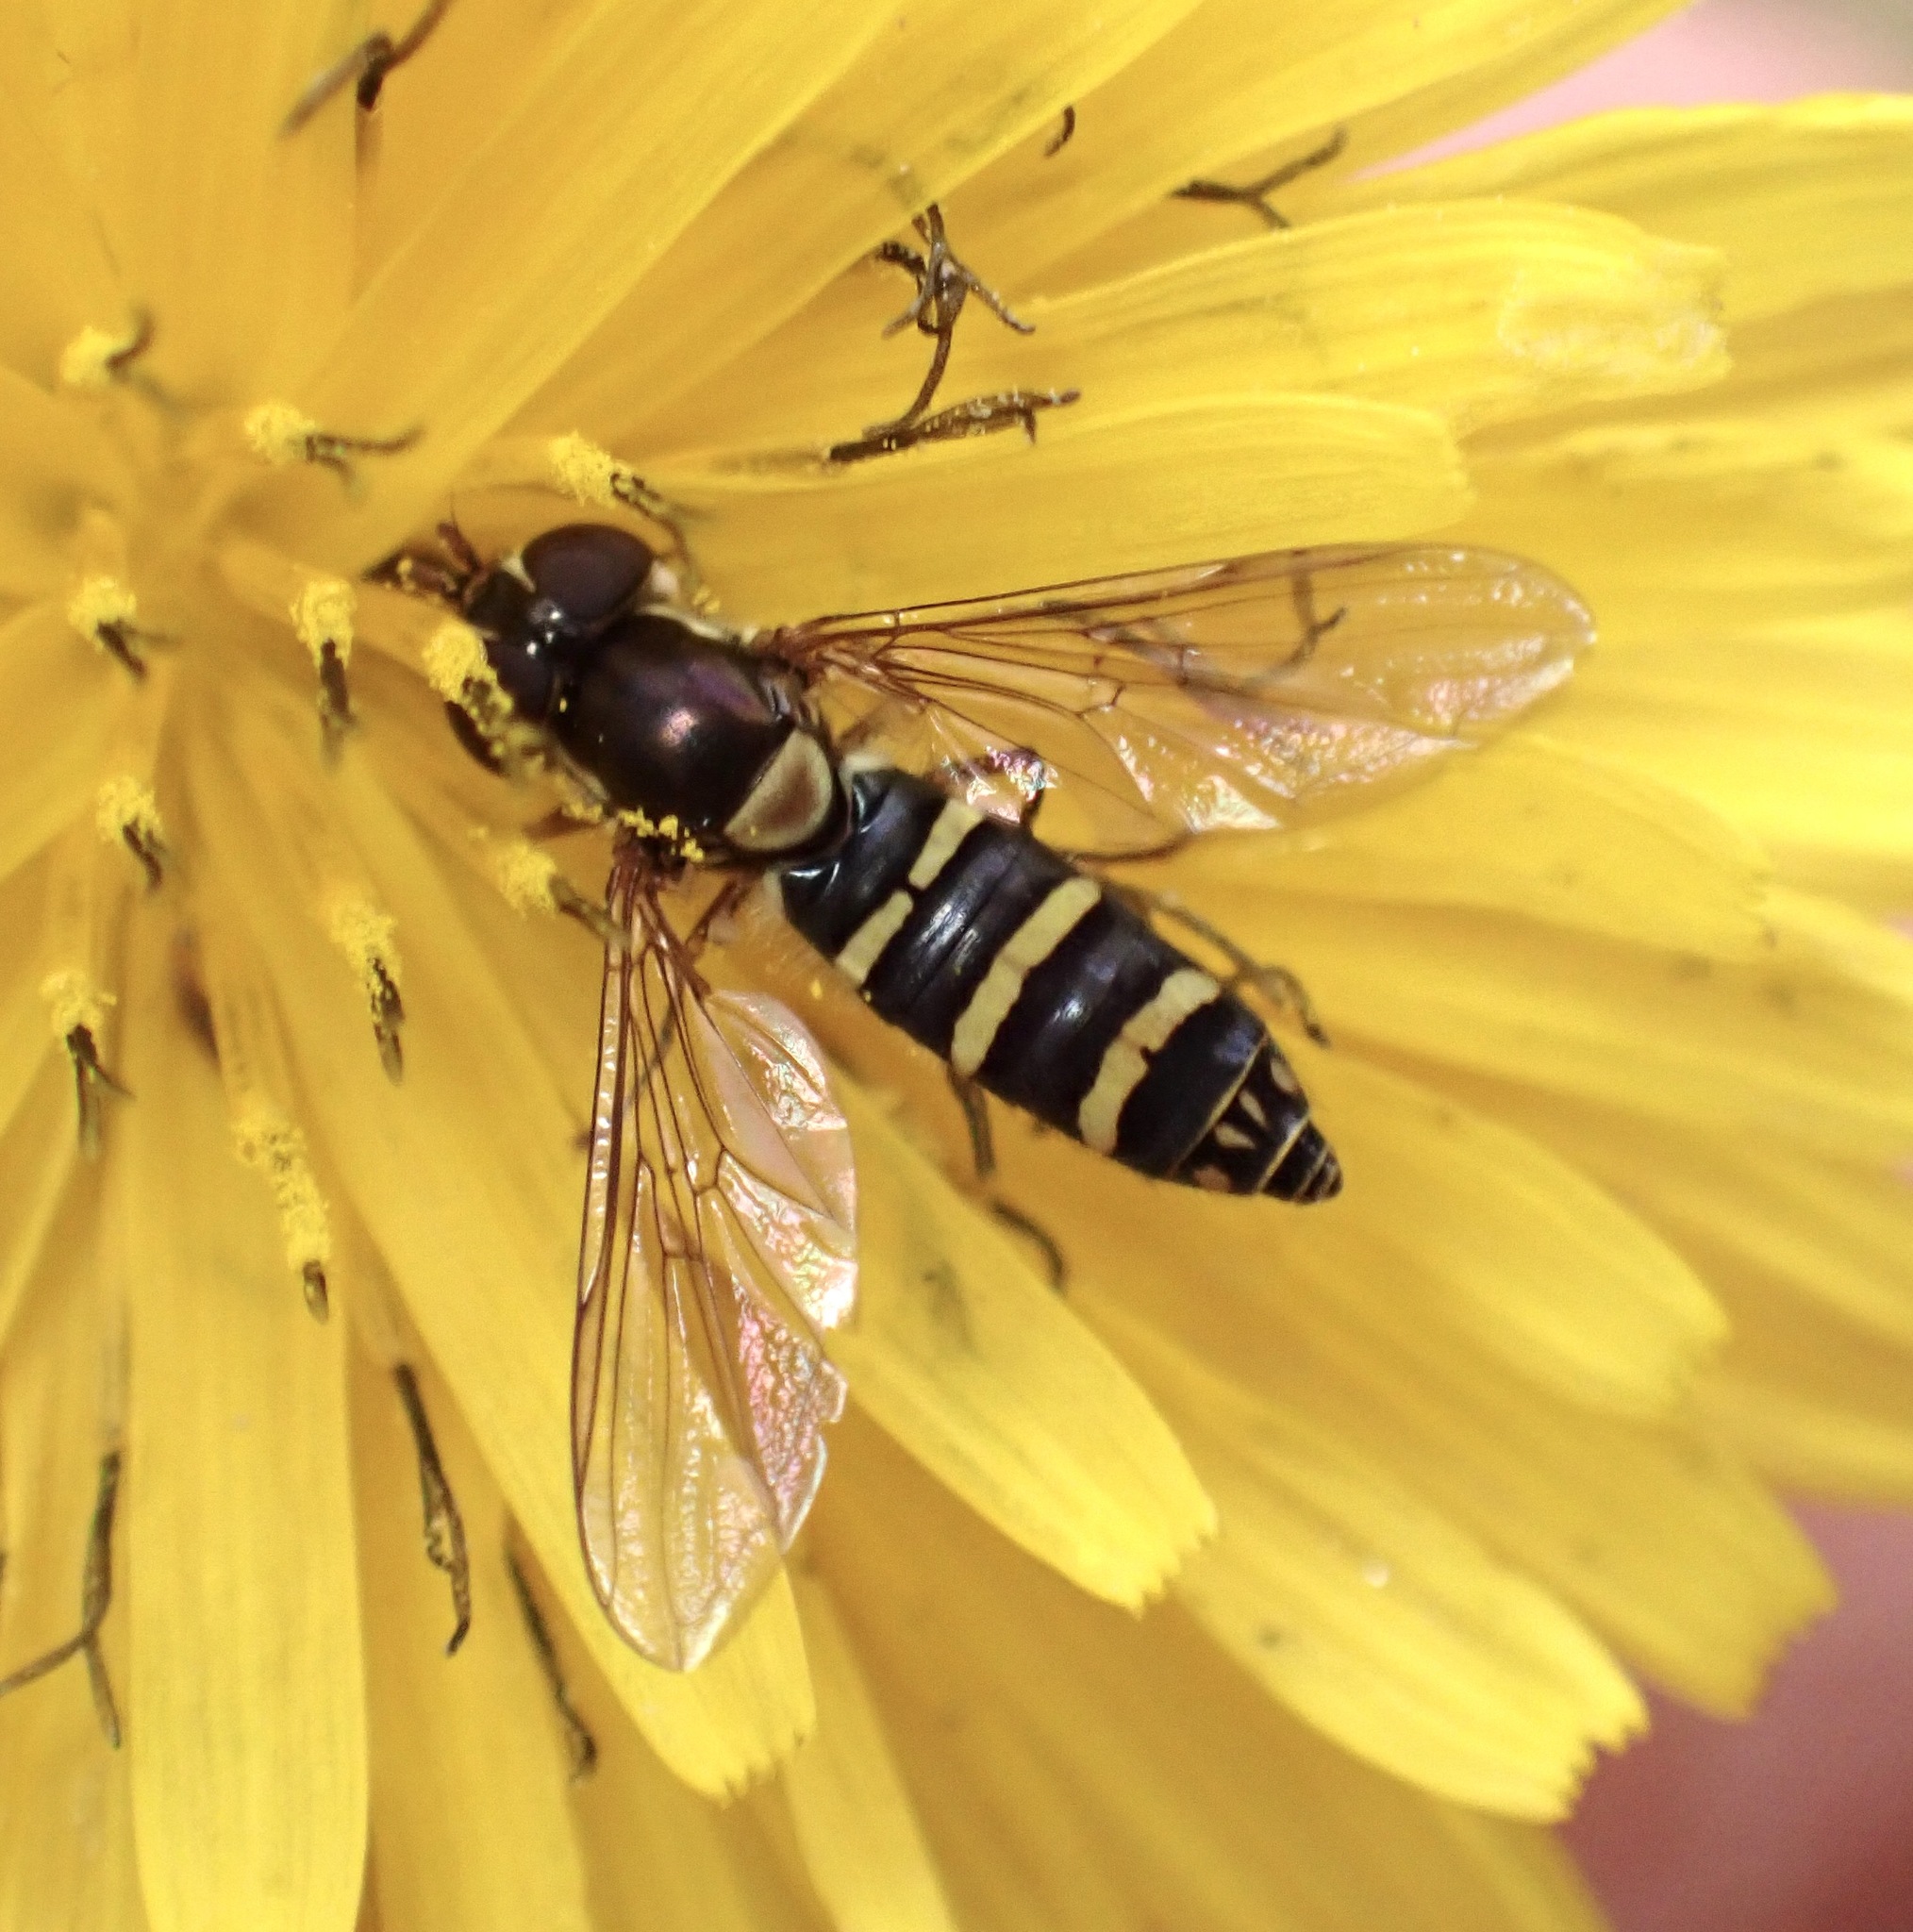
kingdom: Animalia
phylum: Arthropoda
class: Insecta
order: Diptera
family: Syrphidae
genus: Fazia
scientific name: Fazia micrura
